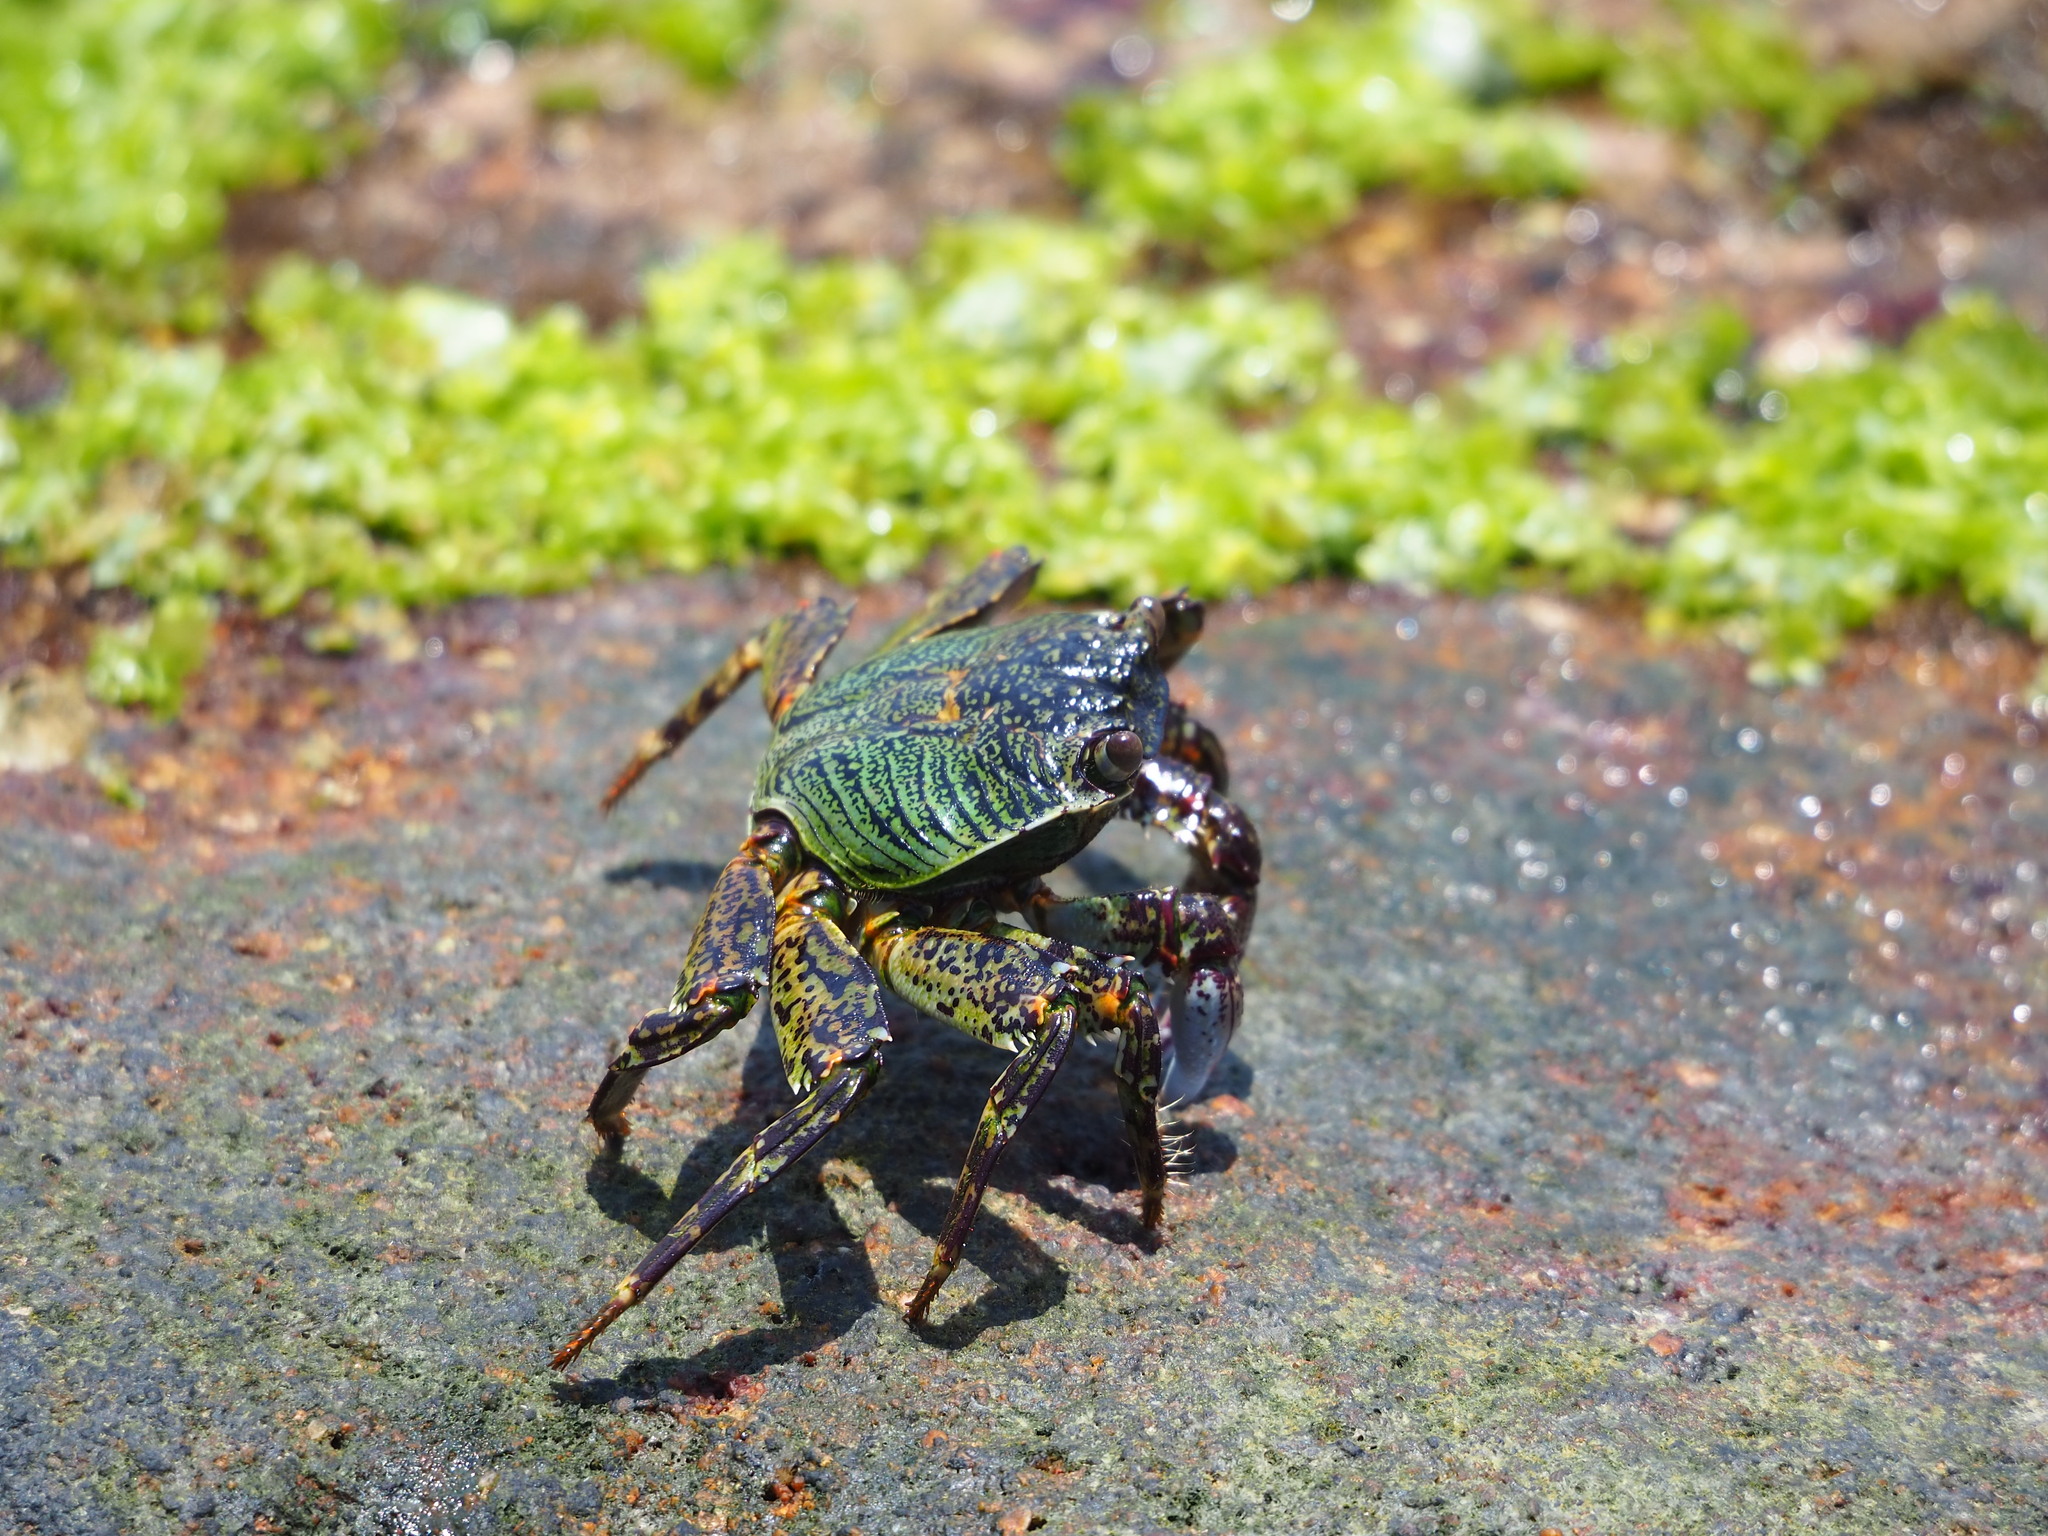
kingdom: Animalia
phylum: Arthropoda
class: Malacostraca
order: Decapoda
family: Grapsidae
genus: Grapsus
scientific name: Grapsus albolineatus
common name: Mottled lightfoot crab
